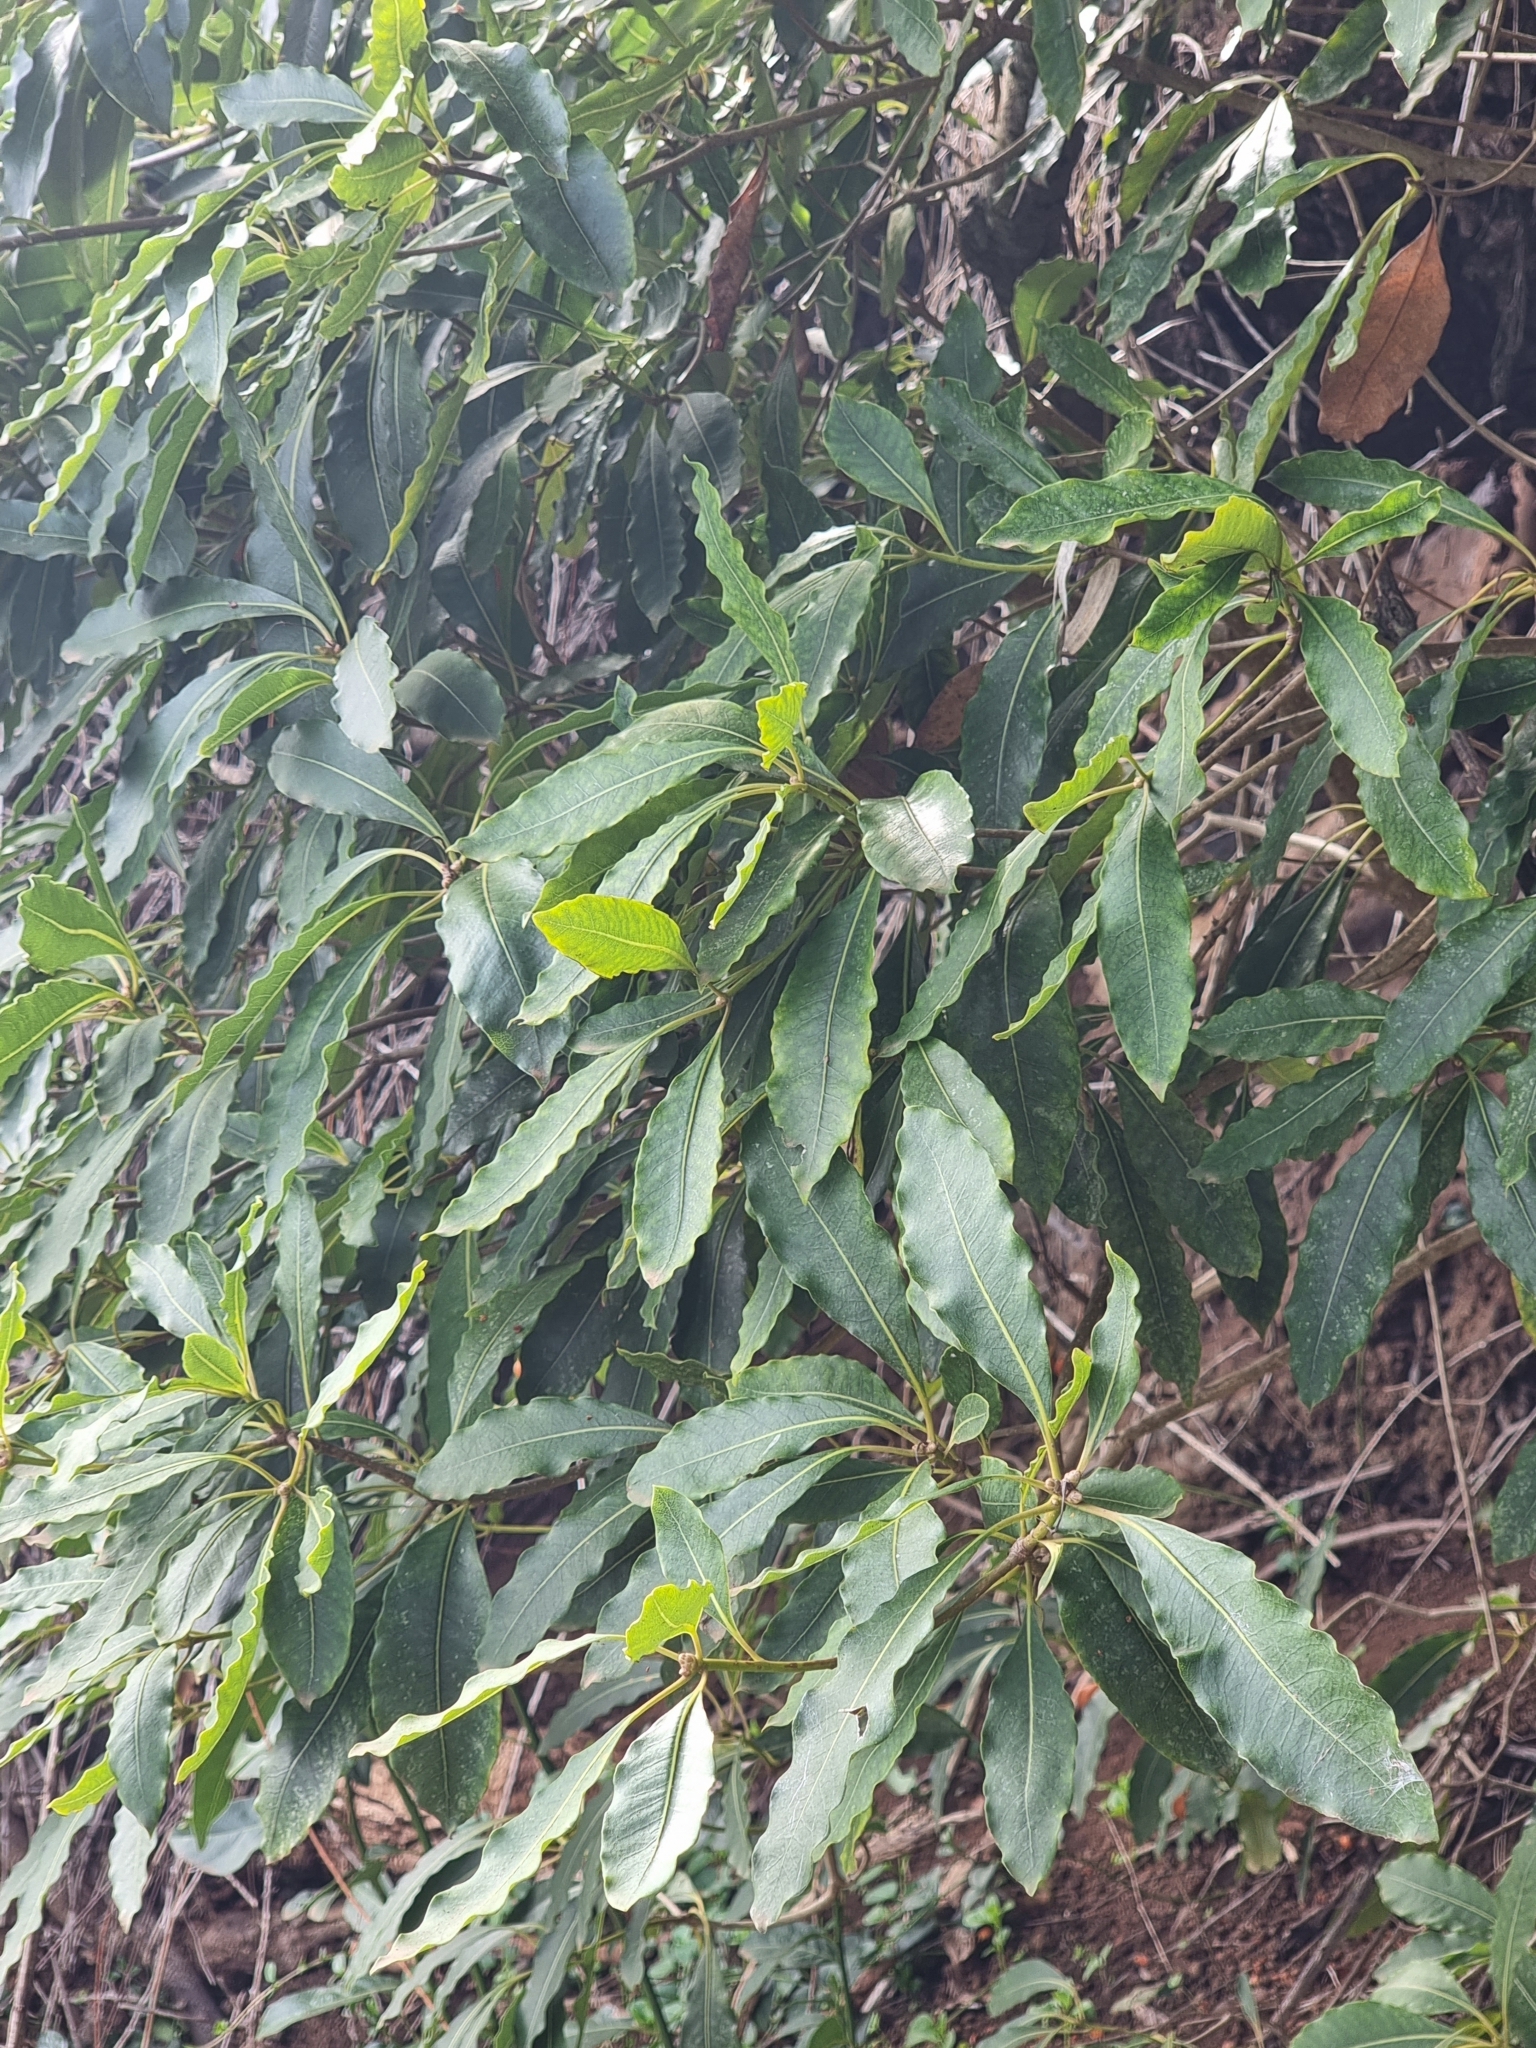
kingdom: Plantae
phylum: Tracheophyta
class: Magnoliopsida
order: Apiales
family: Pittosporaceae
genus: Pittosporum
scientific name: Pittosporum undulatum
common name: Australian cheesewood
